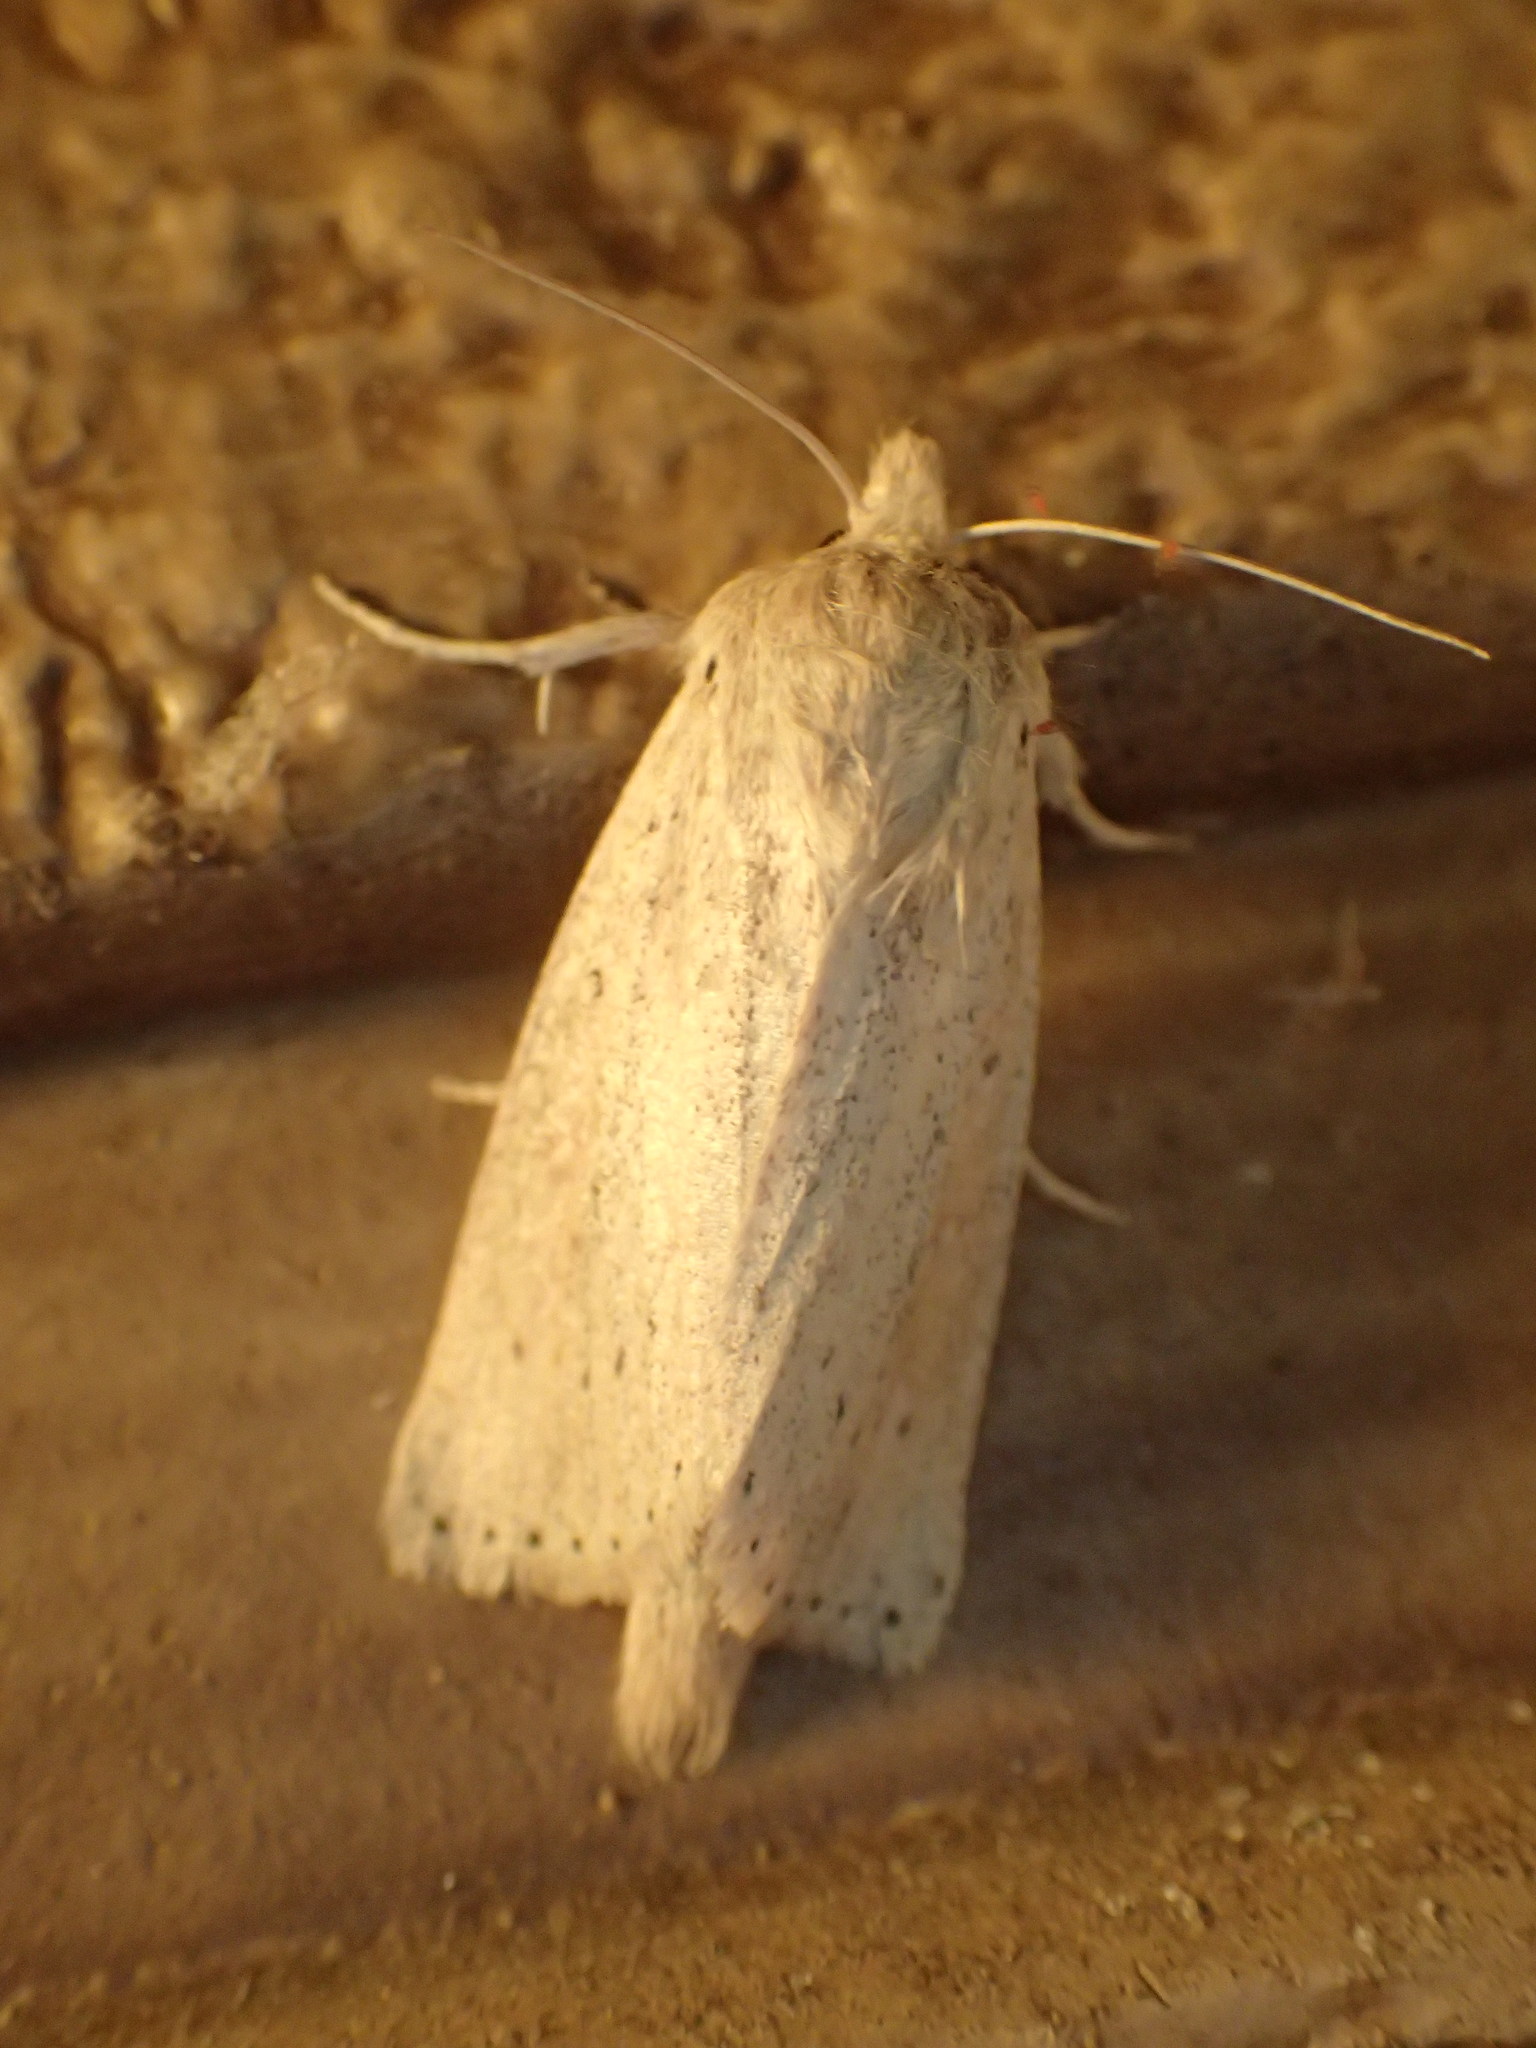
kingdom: Animalia
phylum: Arthropoda
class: Insecta
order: Lepidoptera
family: Noctuidae
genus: Globia
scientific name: Globia oblonga
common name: Oblong sedge borer moth
